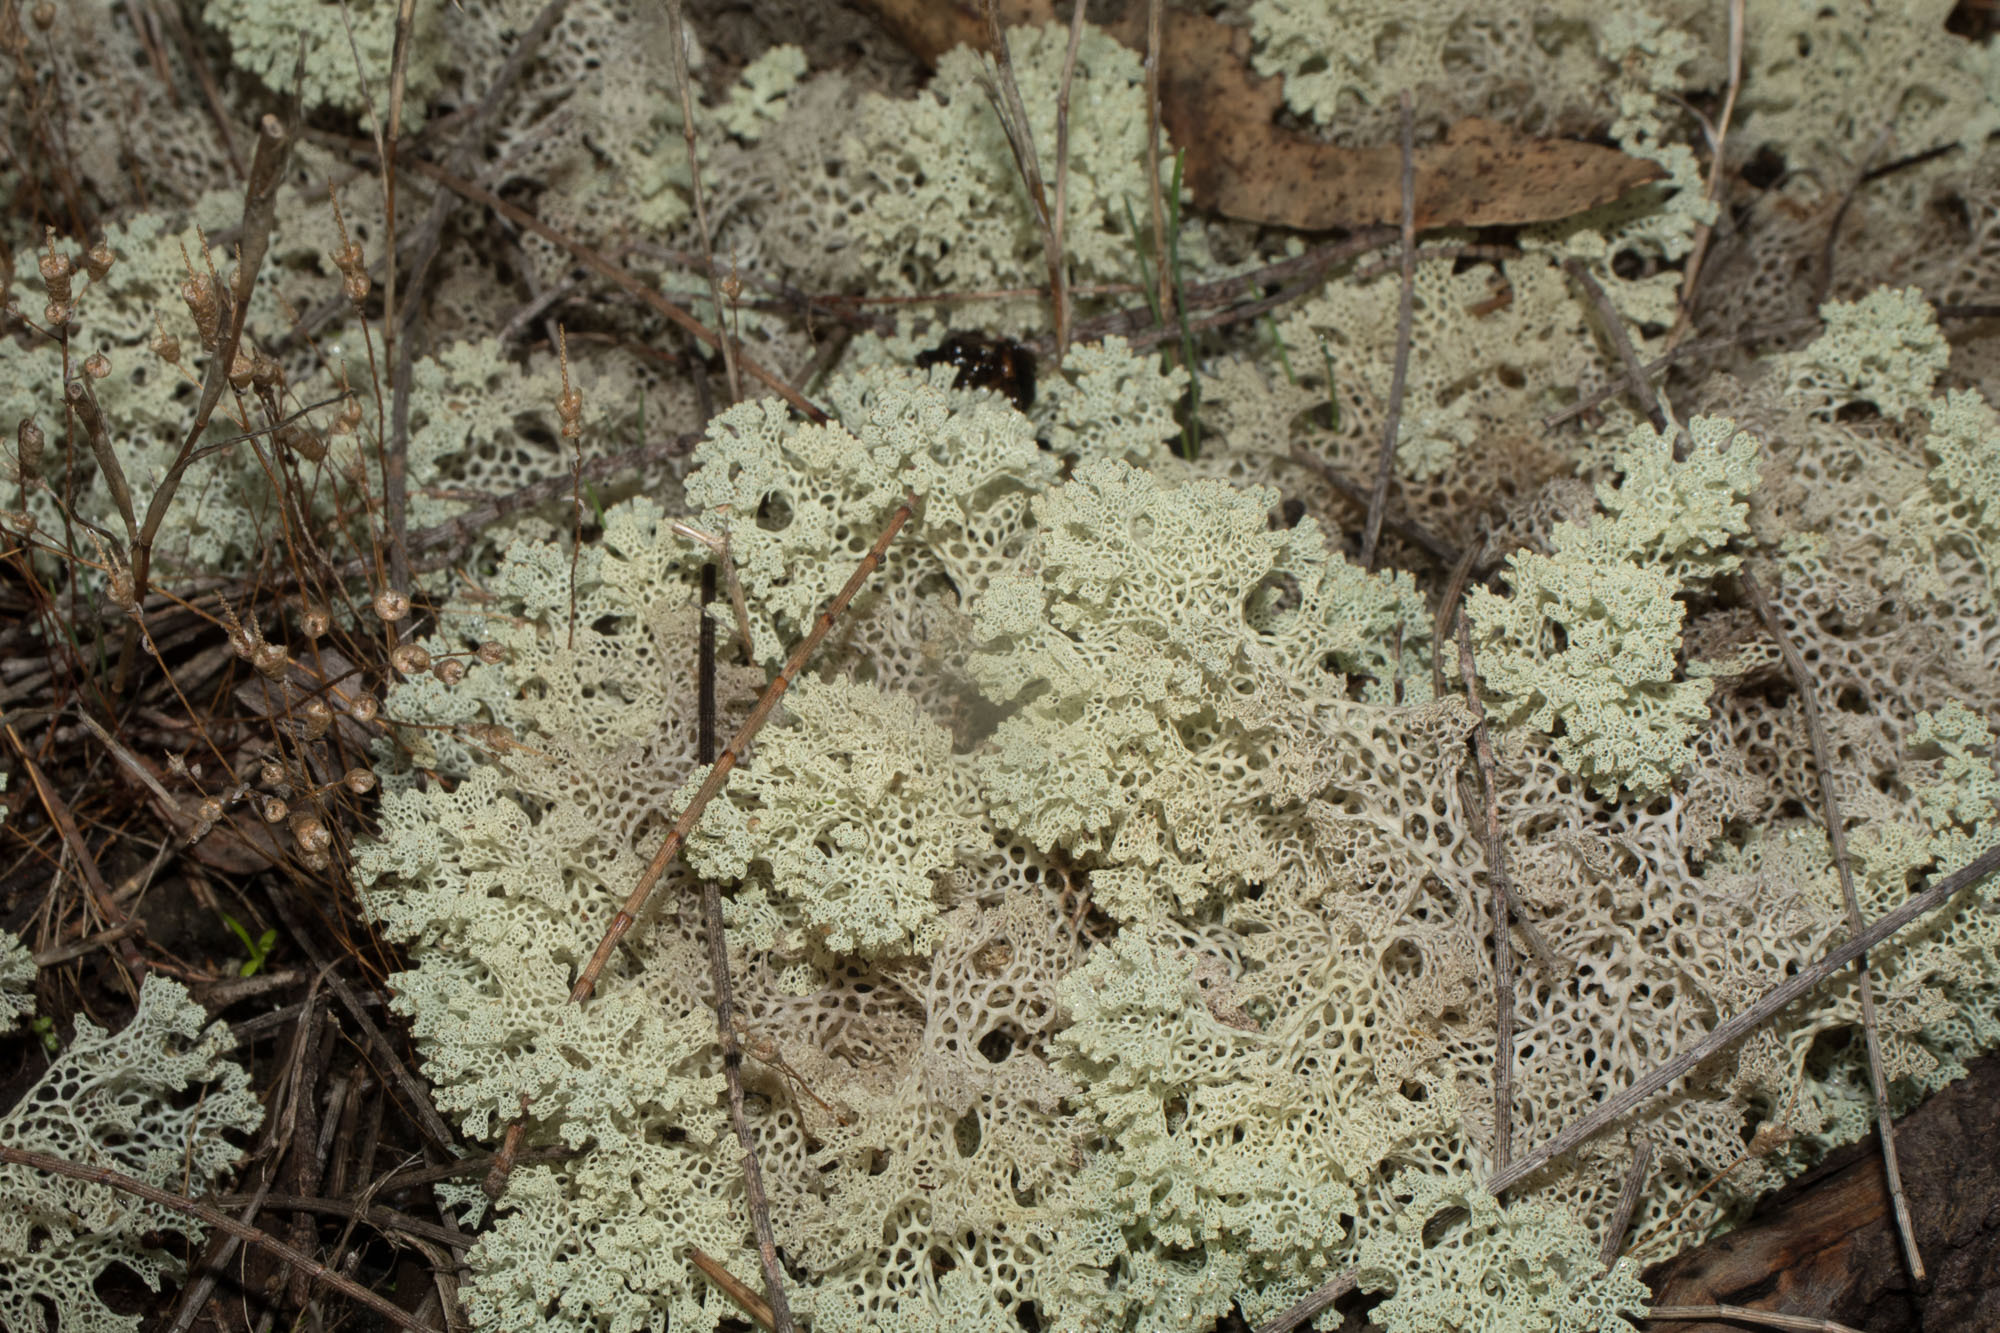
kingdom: Fungi
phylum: Ascomycota
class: Lecanoromycetes
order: Lecanorales
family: Cladoniaceae
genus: Pulchrocladia
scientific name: Pulchrocladia ferdinandii
